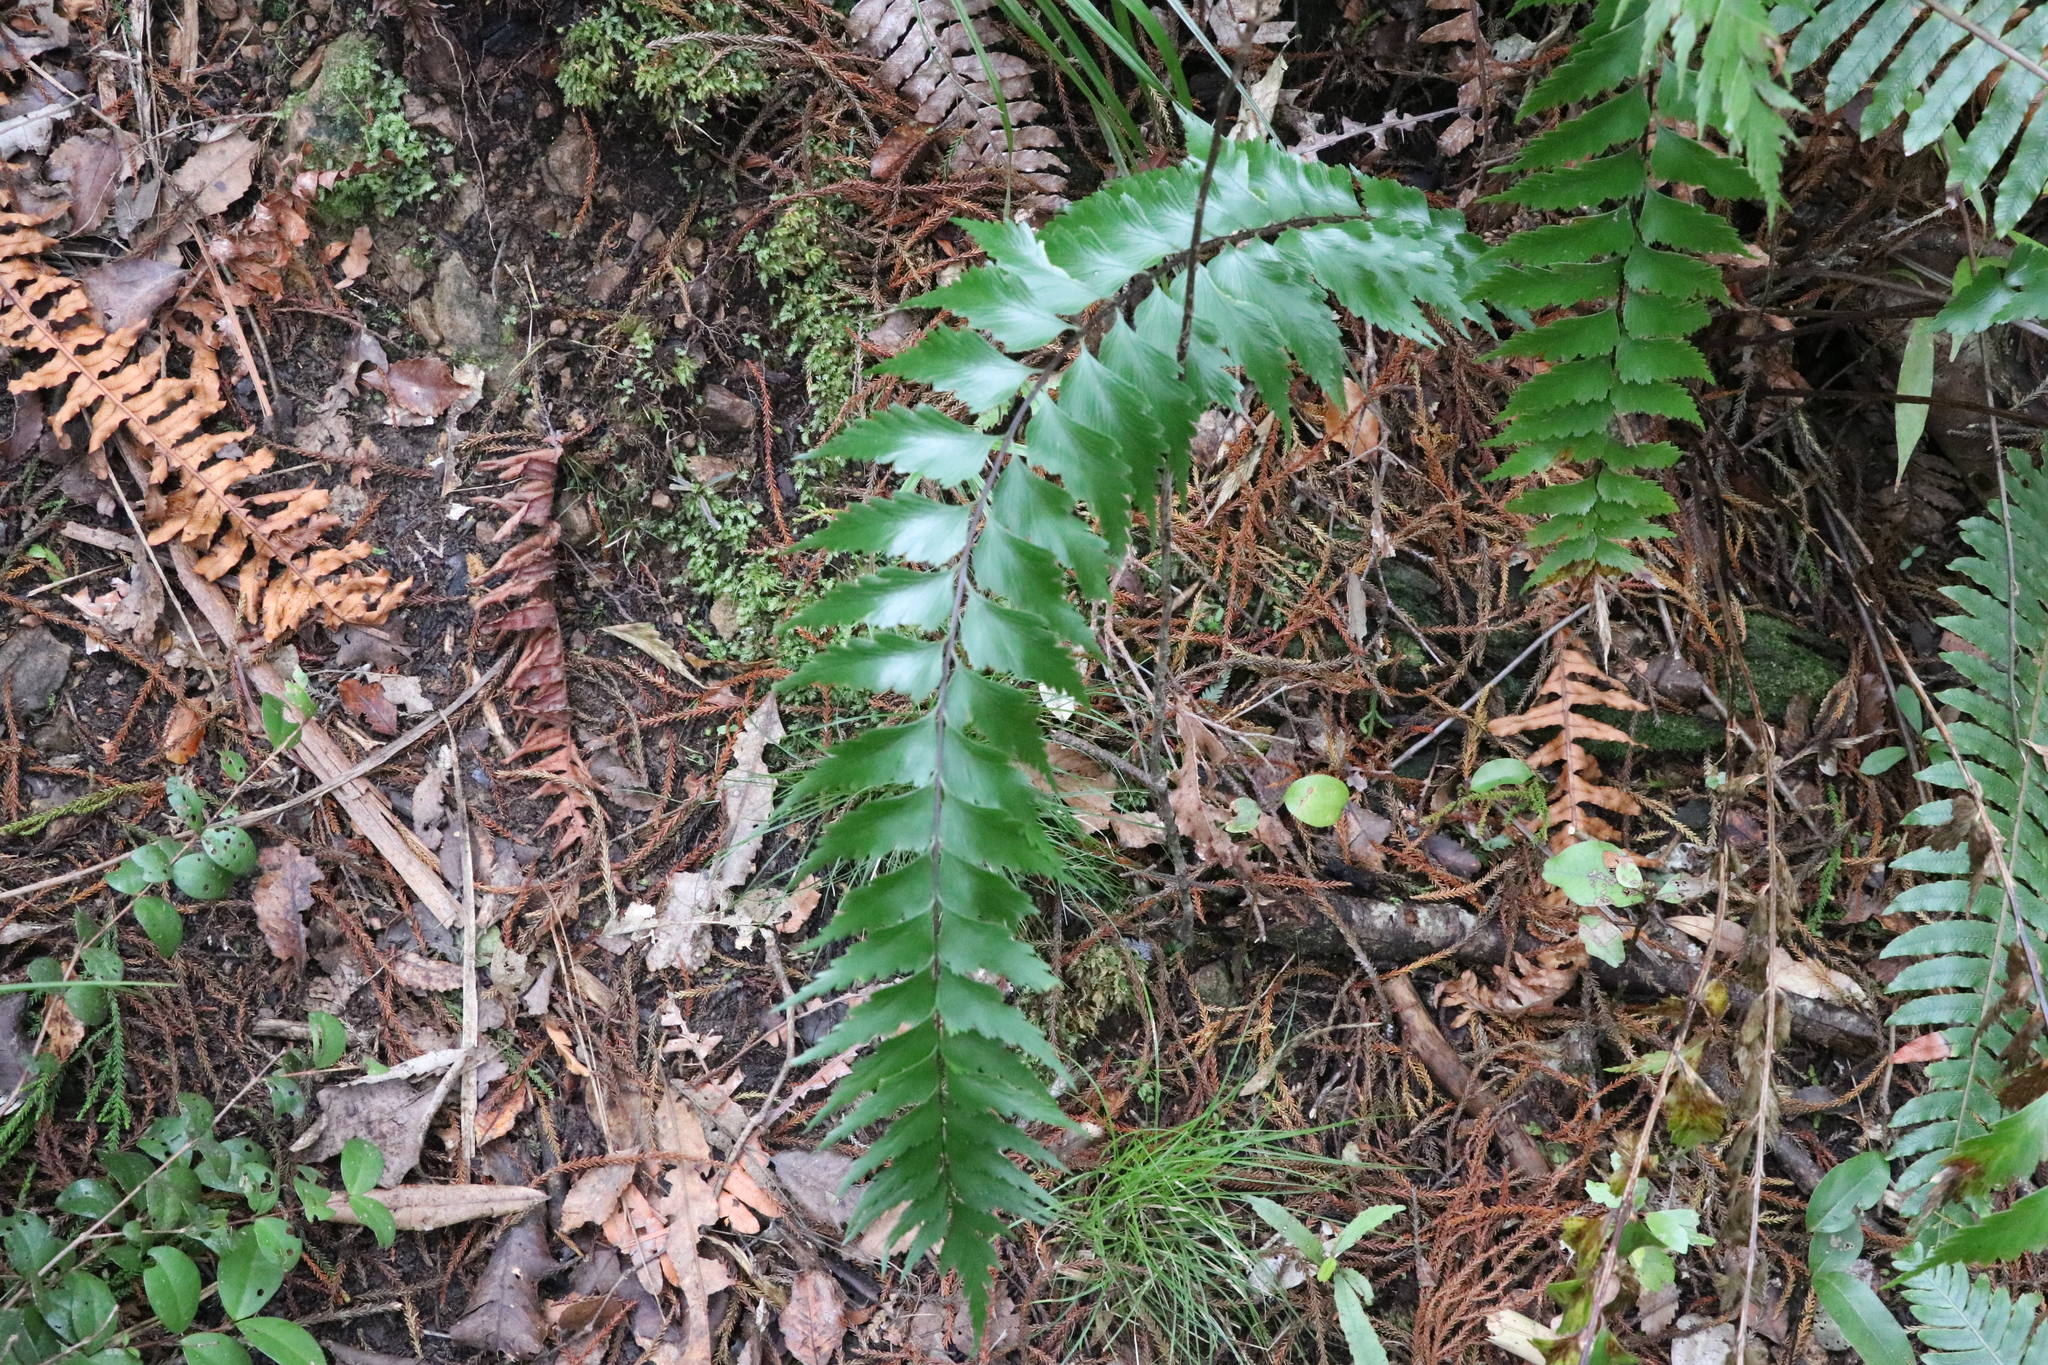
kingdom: Plantae
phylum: Tracheophyta
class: Polypodiopsida
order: Polypodiales
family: Aspleniaceae
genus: Asplenium
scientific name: Asplenium polyodon
